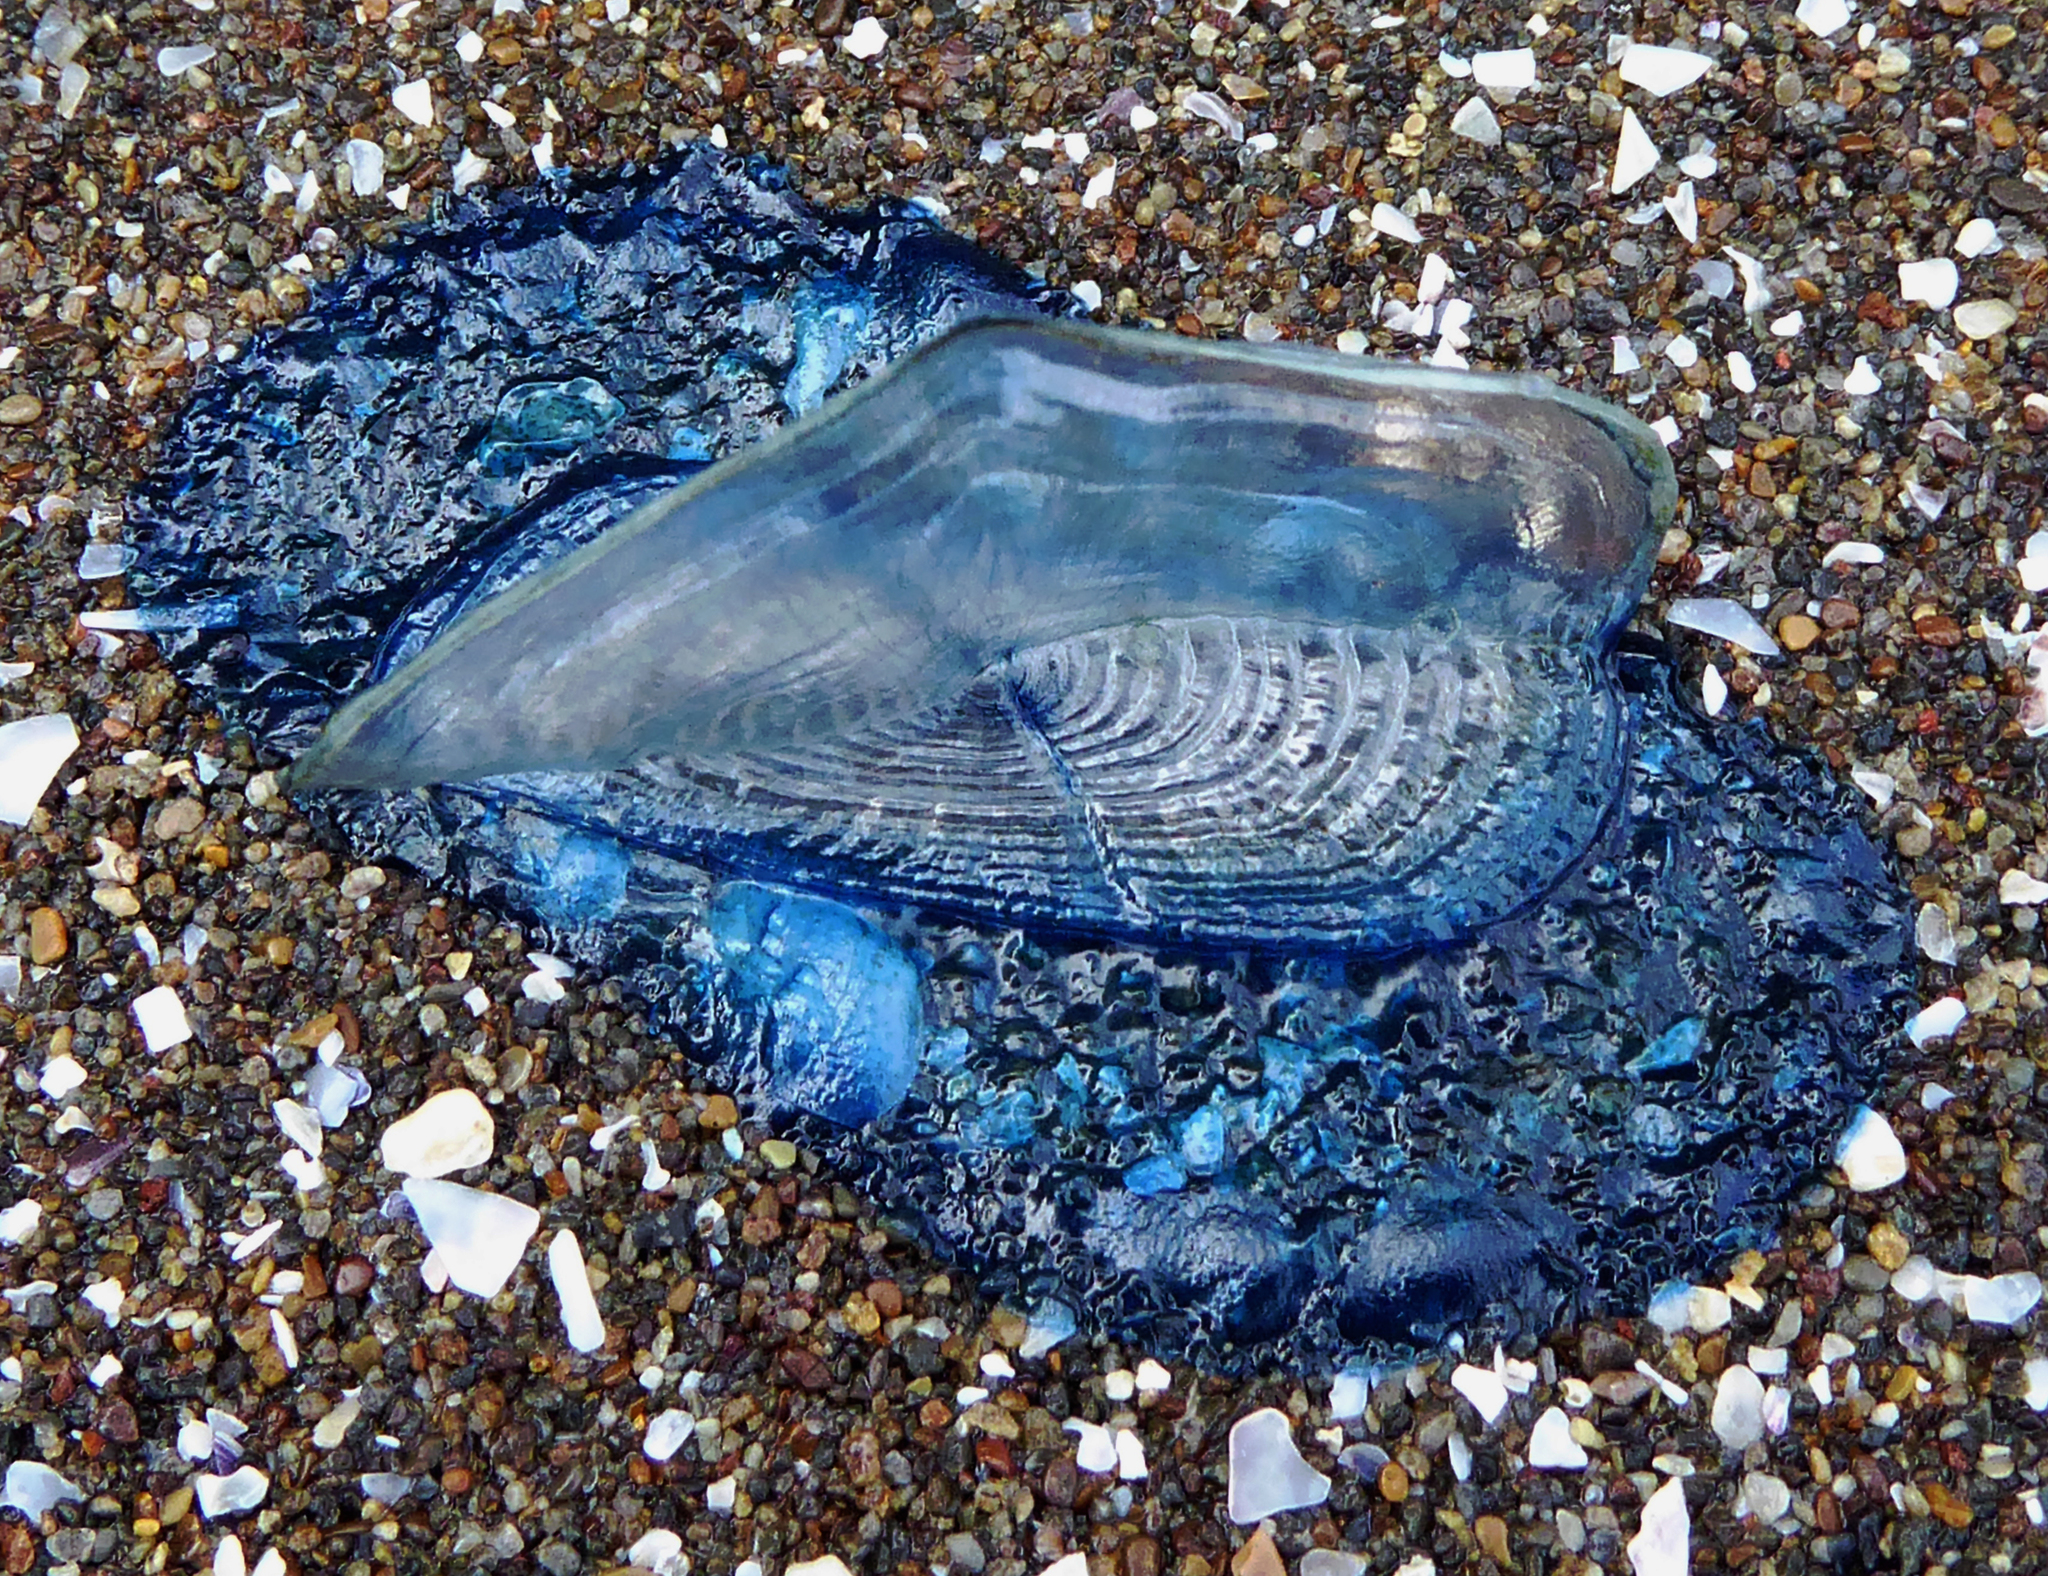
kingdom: Animalia
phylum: Cnidaria
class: Hydrozoa
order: Anthoathecata
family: Porpitidae
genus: Velella
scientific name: Velella velella
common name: By-the-wind-sailor
